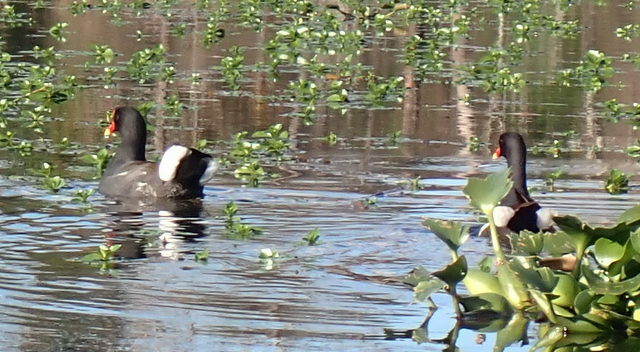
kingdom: Animalia
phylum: Chordata
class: Aves
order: Gruiformes
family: Rallidae
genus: Gallinula
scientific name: Gallinula chloropus
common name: Common moorhen
